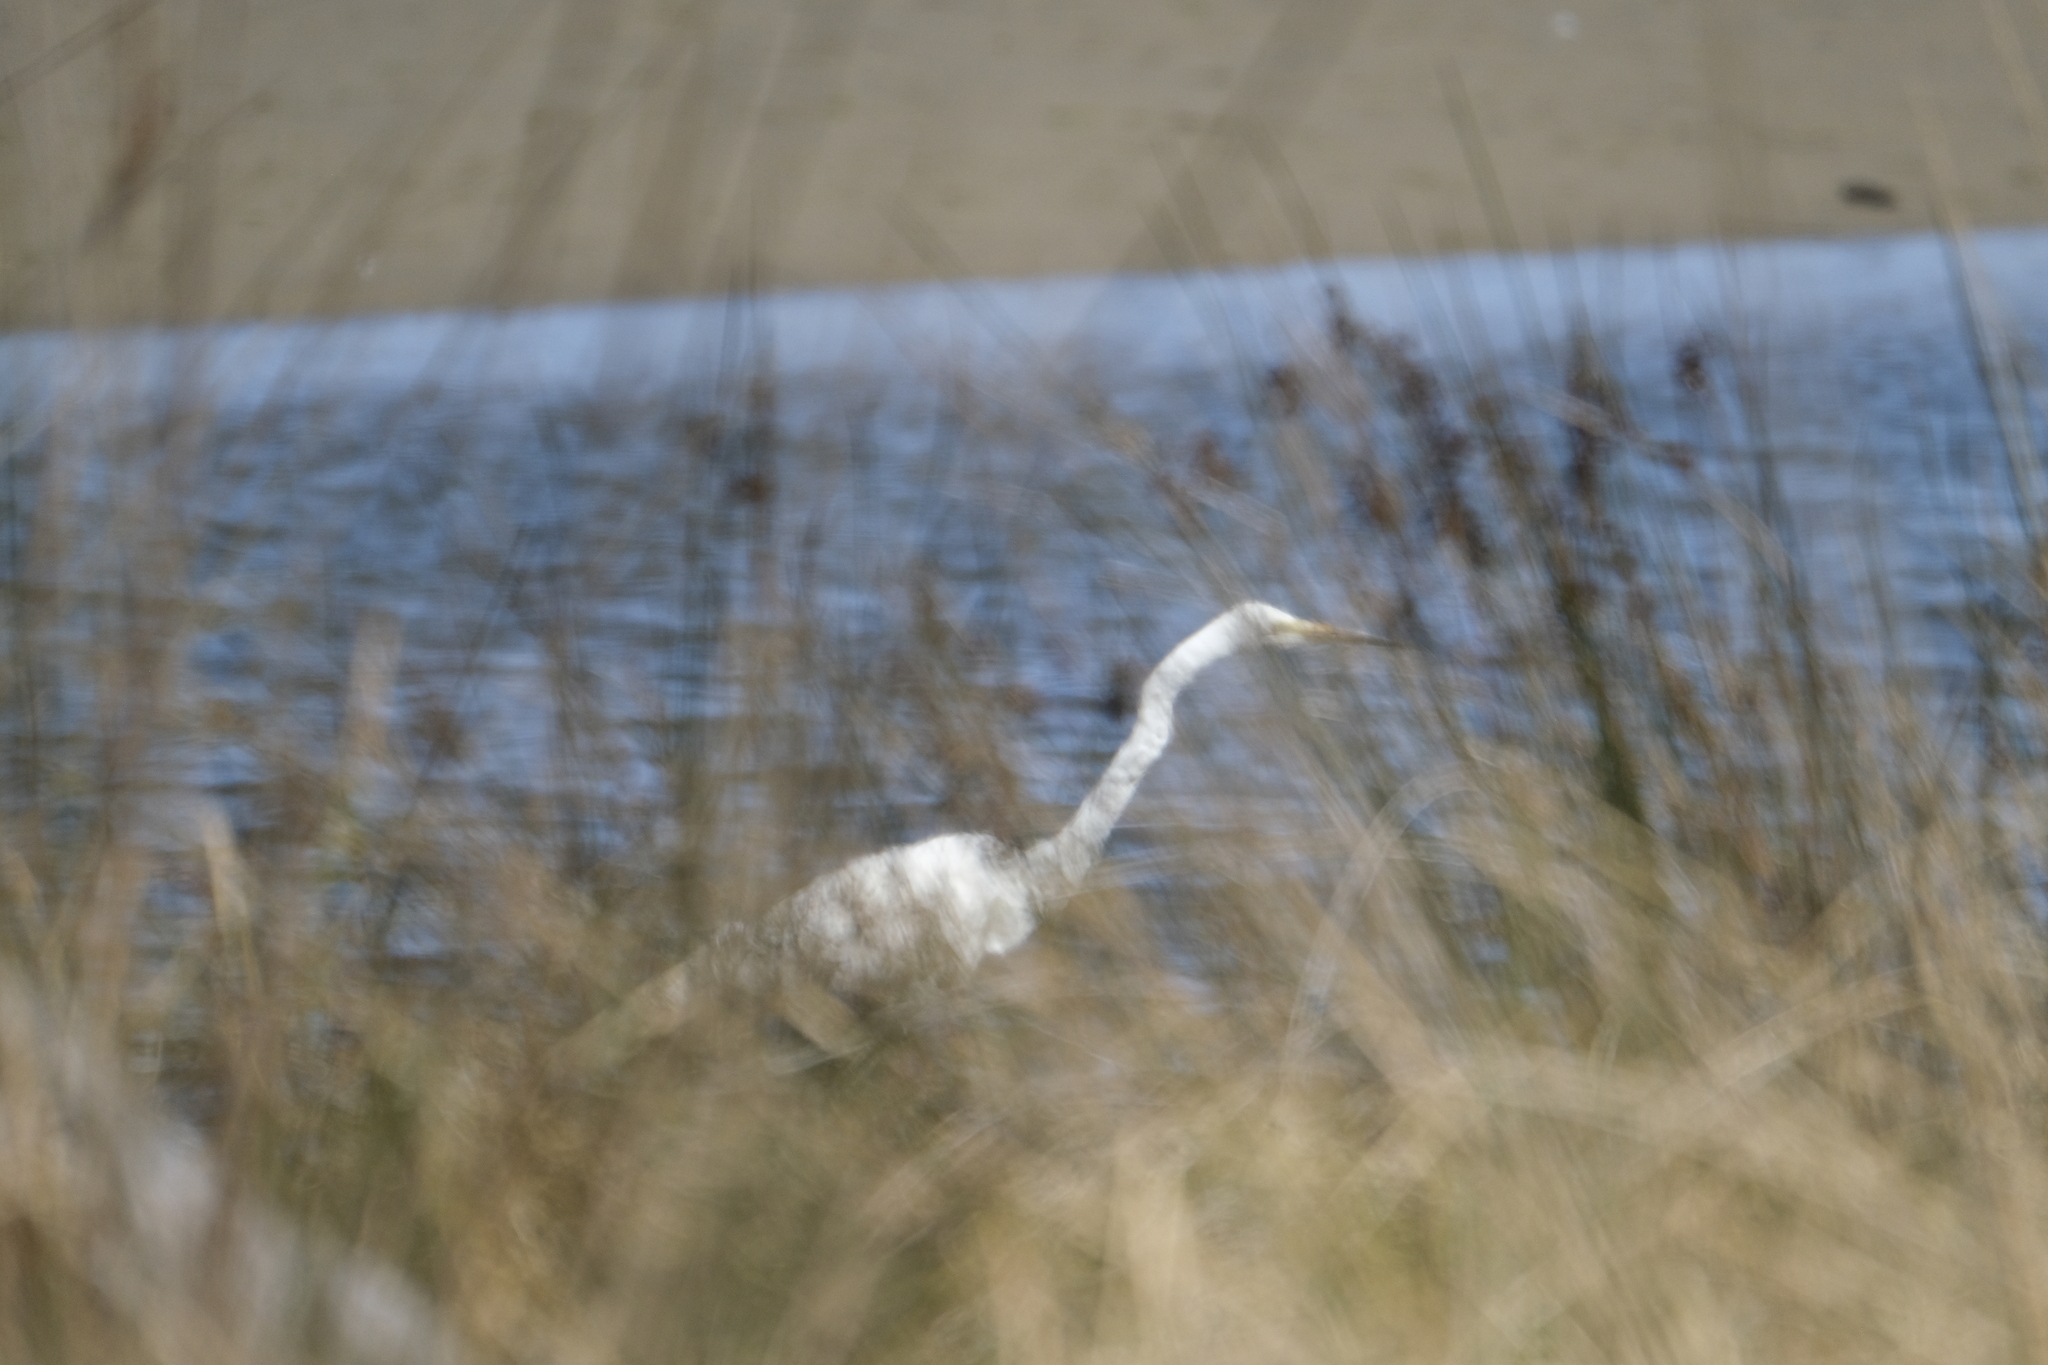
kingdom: Animalia
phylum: Chordata
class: Aves
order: Pelecaniformes
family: Ardeidae
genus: Ardea
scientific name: Ardea alba
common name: Great egret
